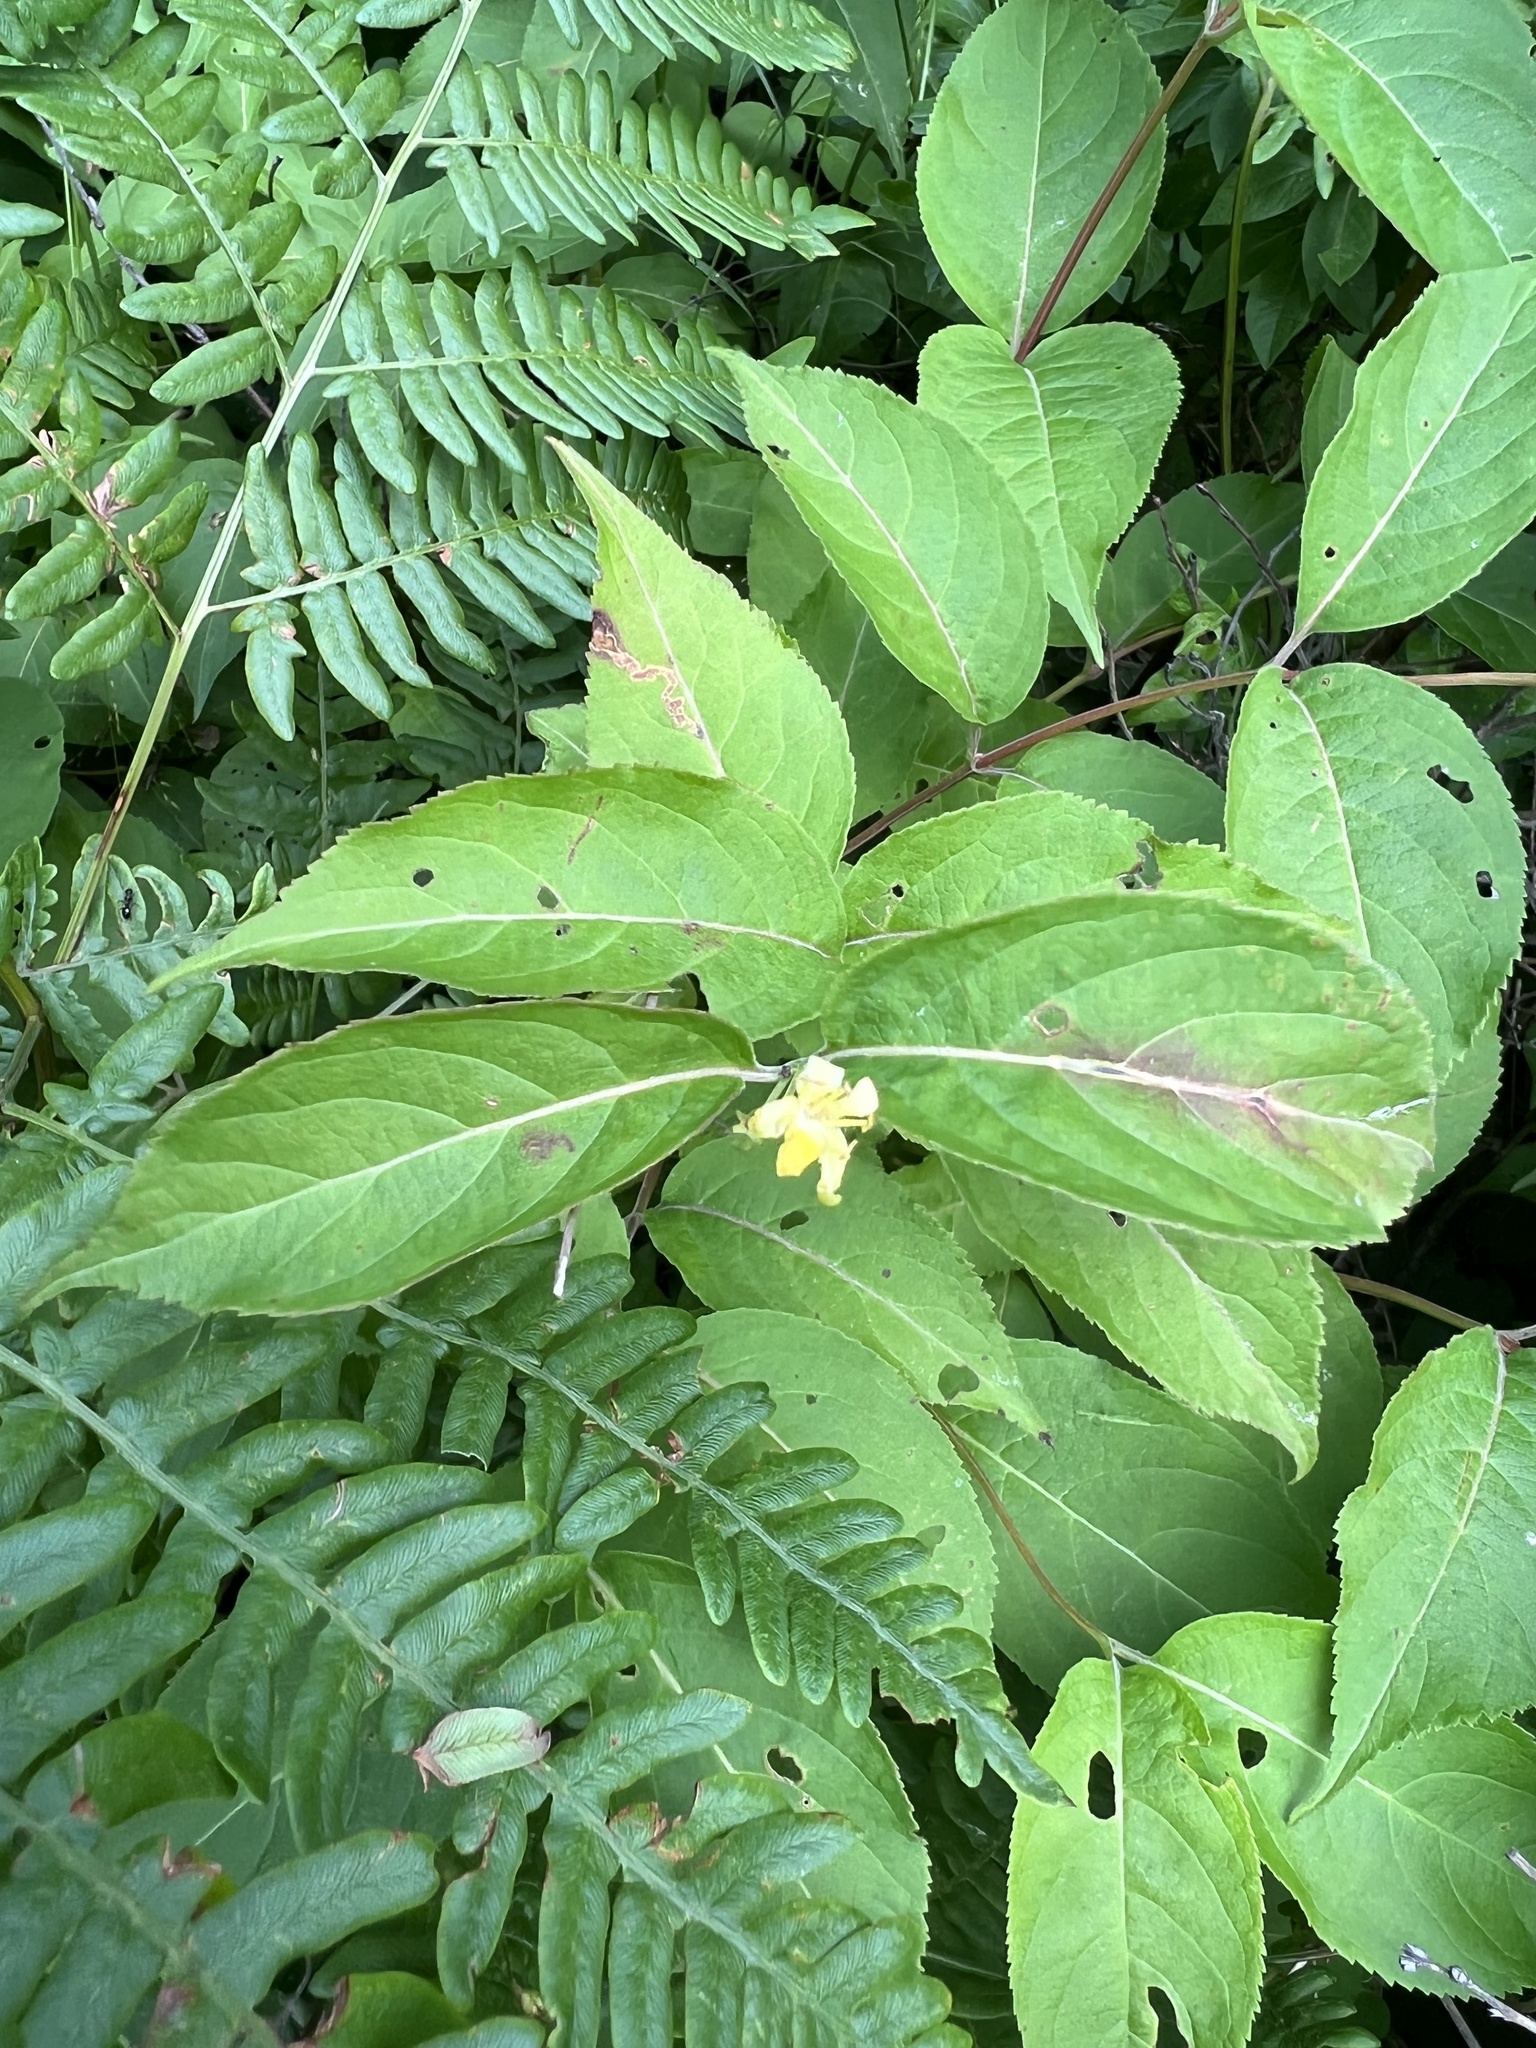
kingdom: Plantae
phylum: Tracheophyta
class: Magnoliopsida
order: Dipsacales
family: Caprifoliaceae
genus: Diervilla
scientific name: Diervilla lonicera
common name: Bush-honeysuckle
